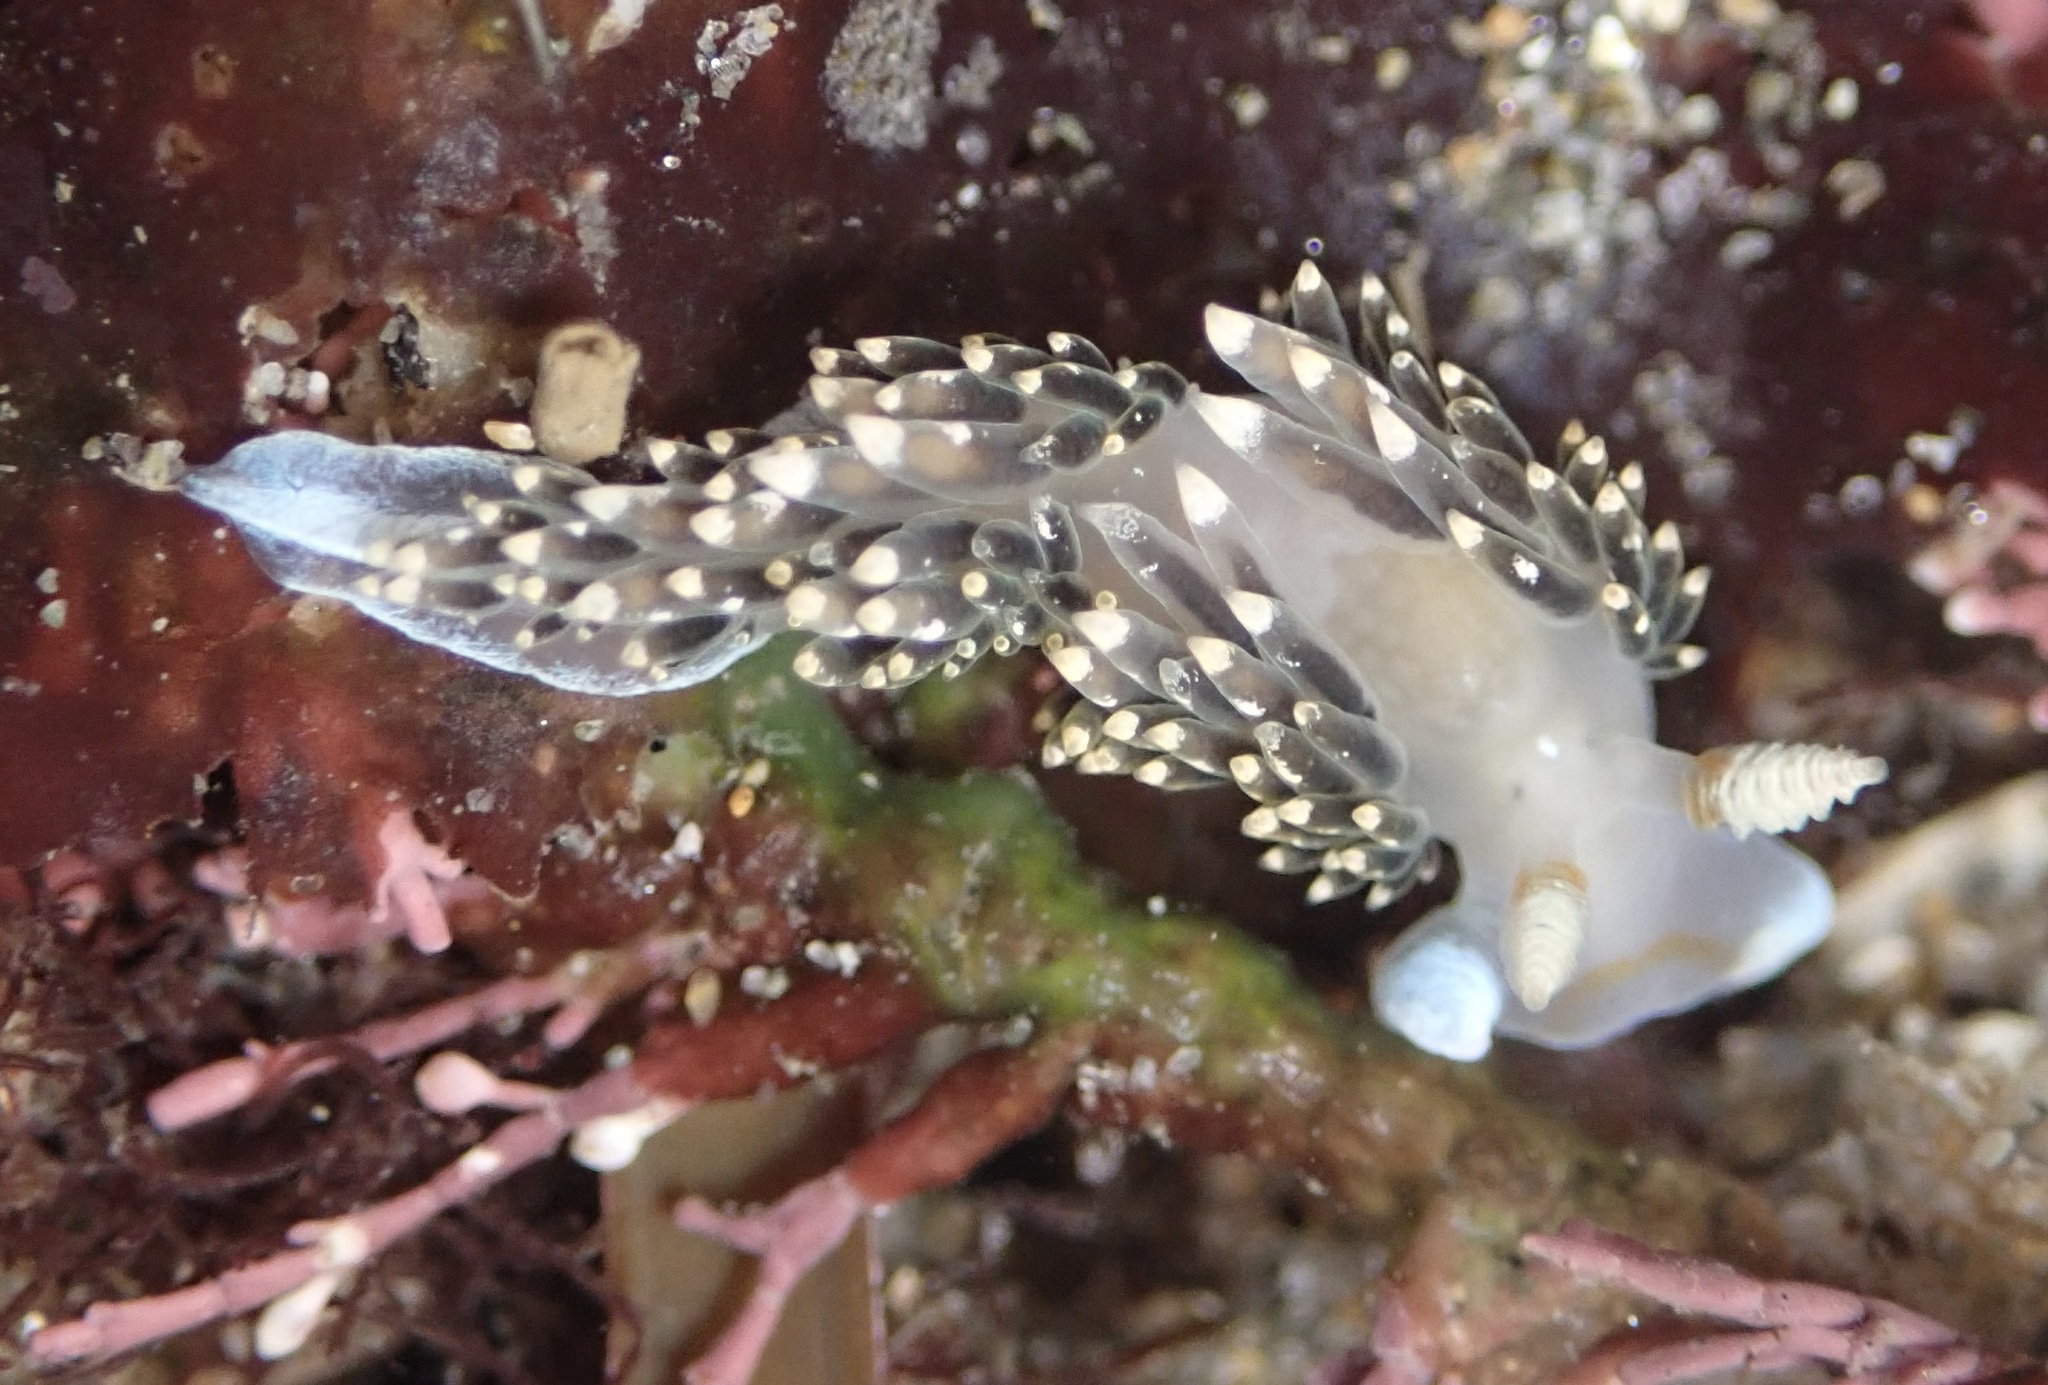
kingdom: Animalia
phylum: Mollusca
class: Gastropoda
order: Nudibranchia
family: Facelinidae
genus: Phidiana
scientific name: Phidiana hiltoni
